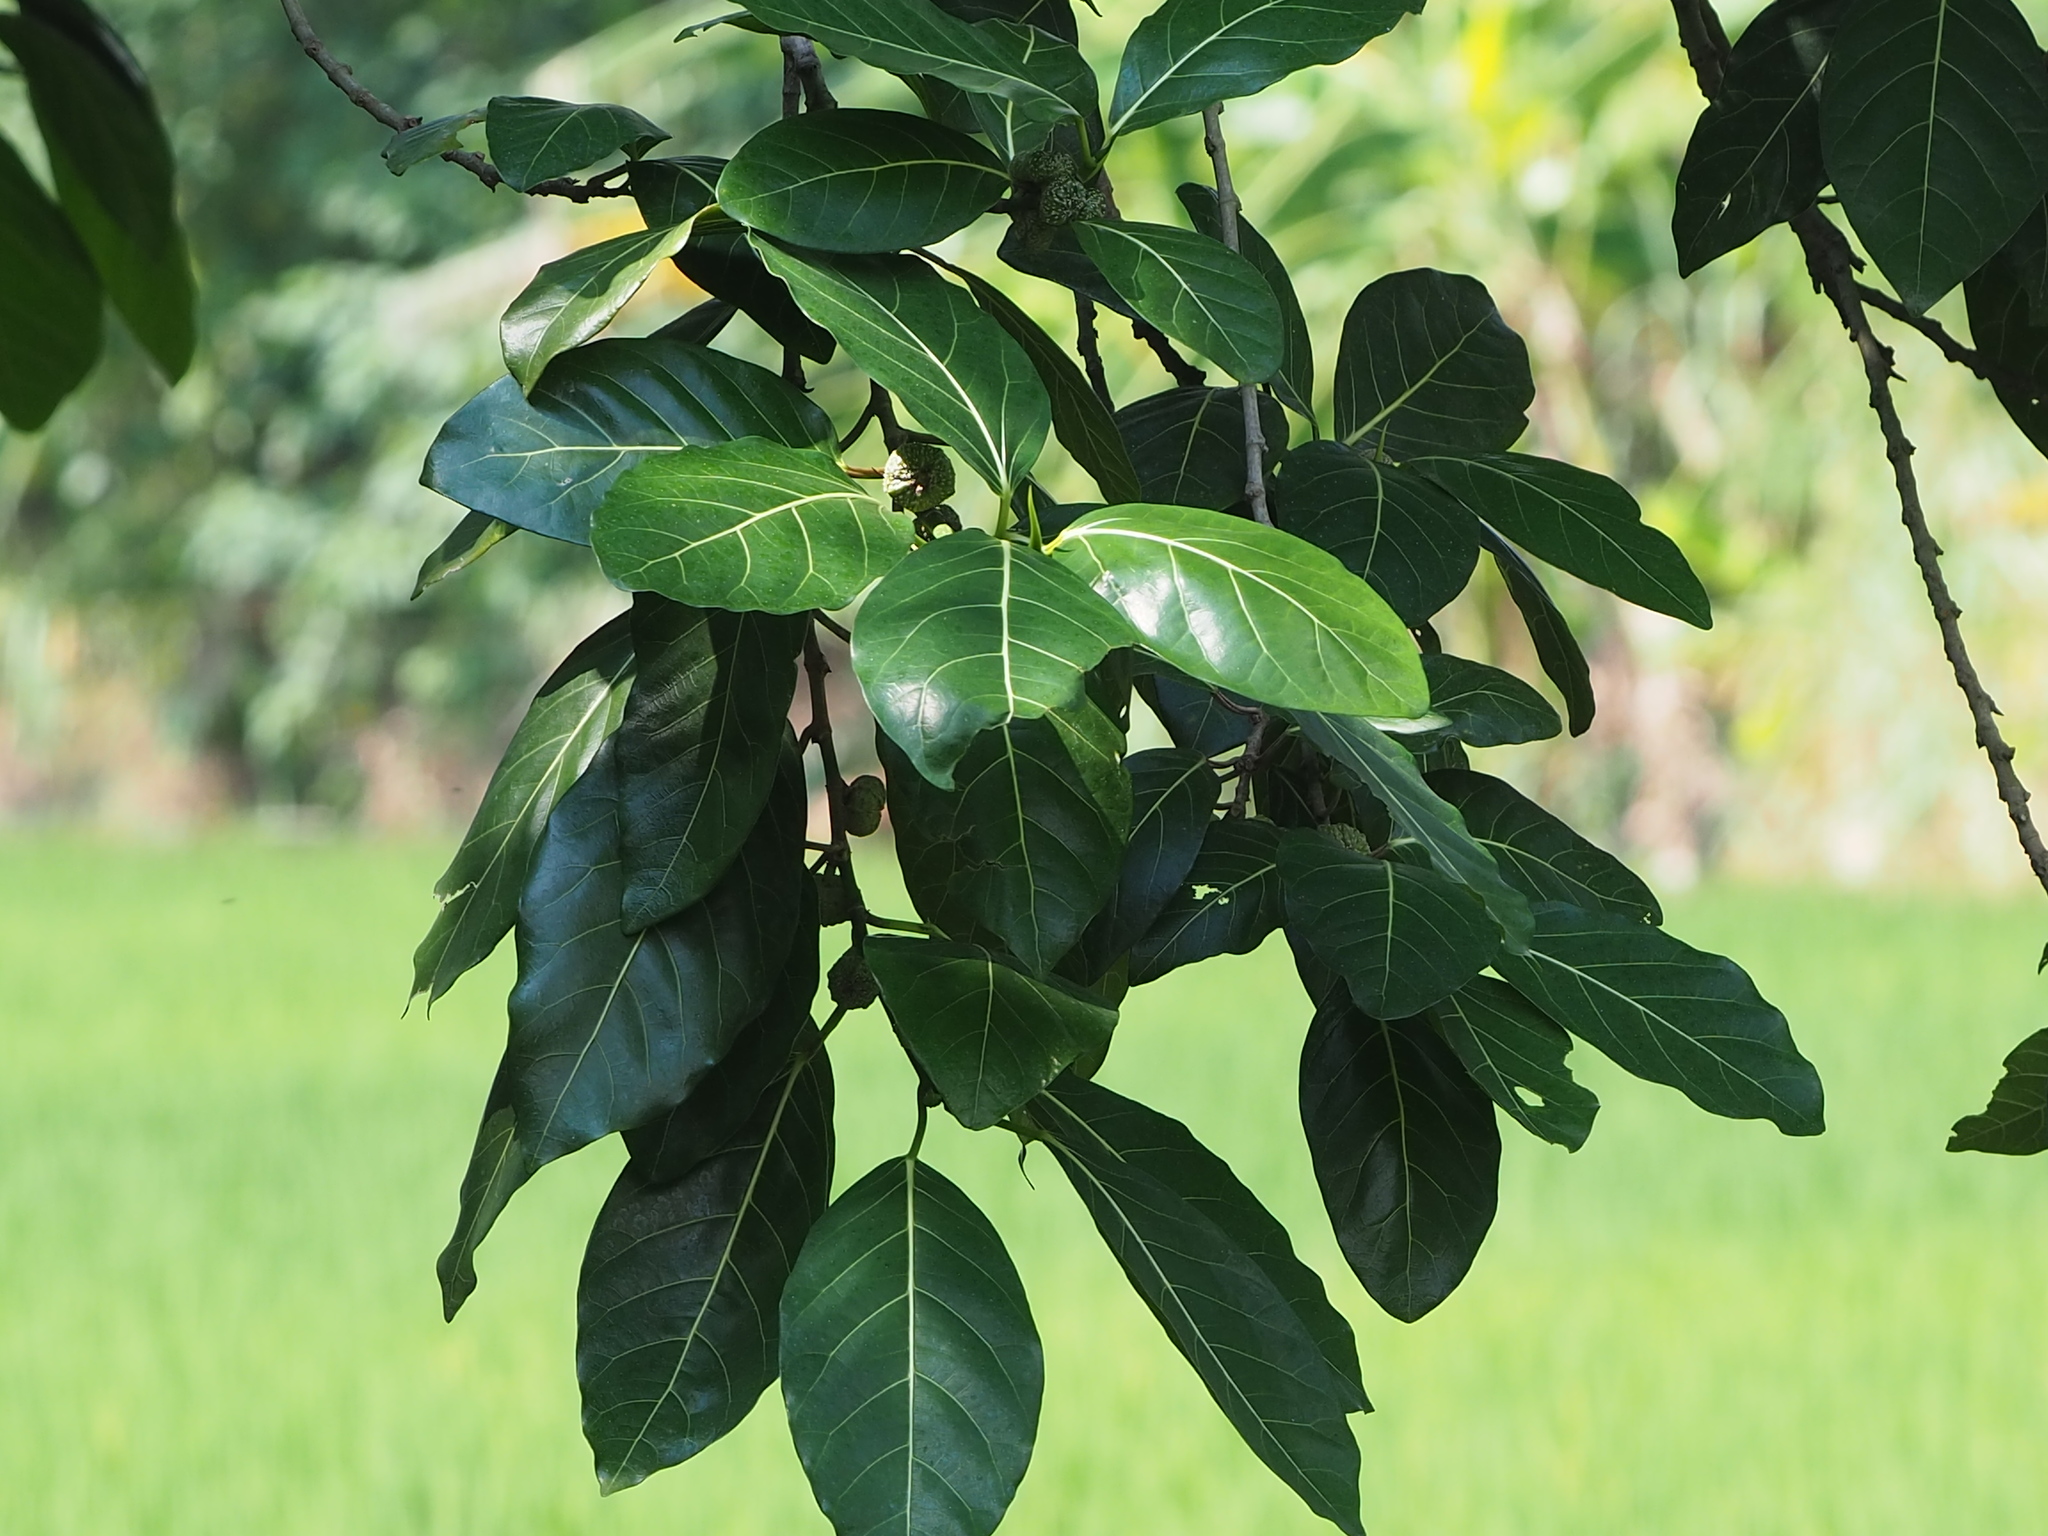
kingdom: Plantae
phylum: Tracheophyta
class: Magnoliopsida
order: Rosales
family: Moraceae
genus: Ficus
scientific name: Ficus septica
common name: Septic fig
